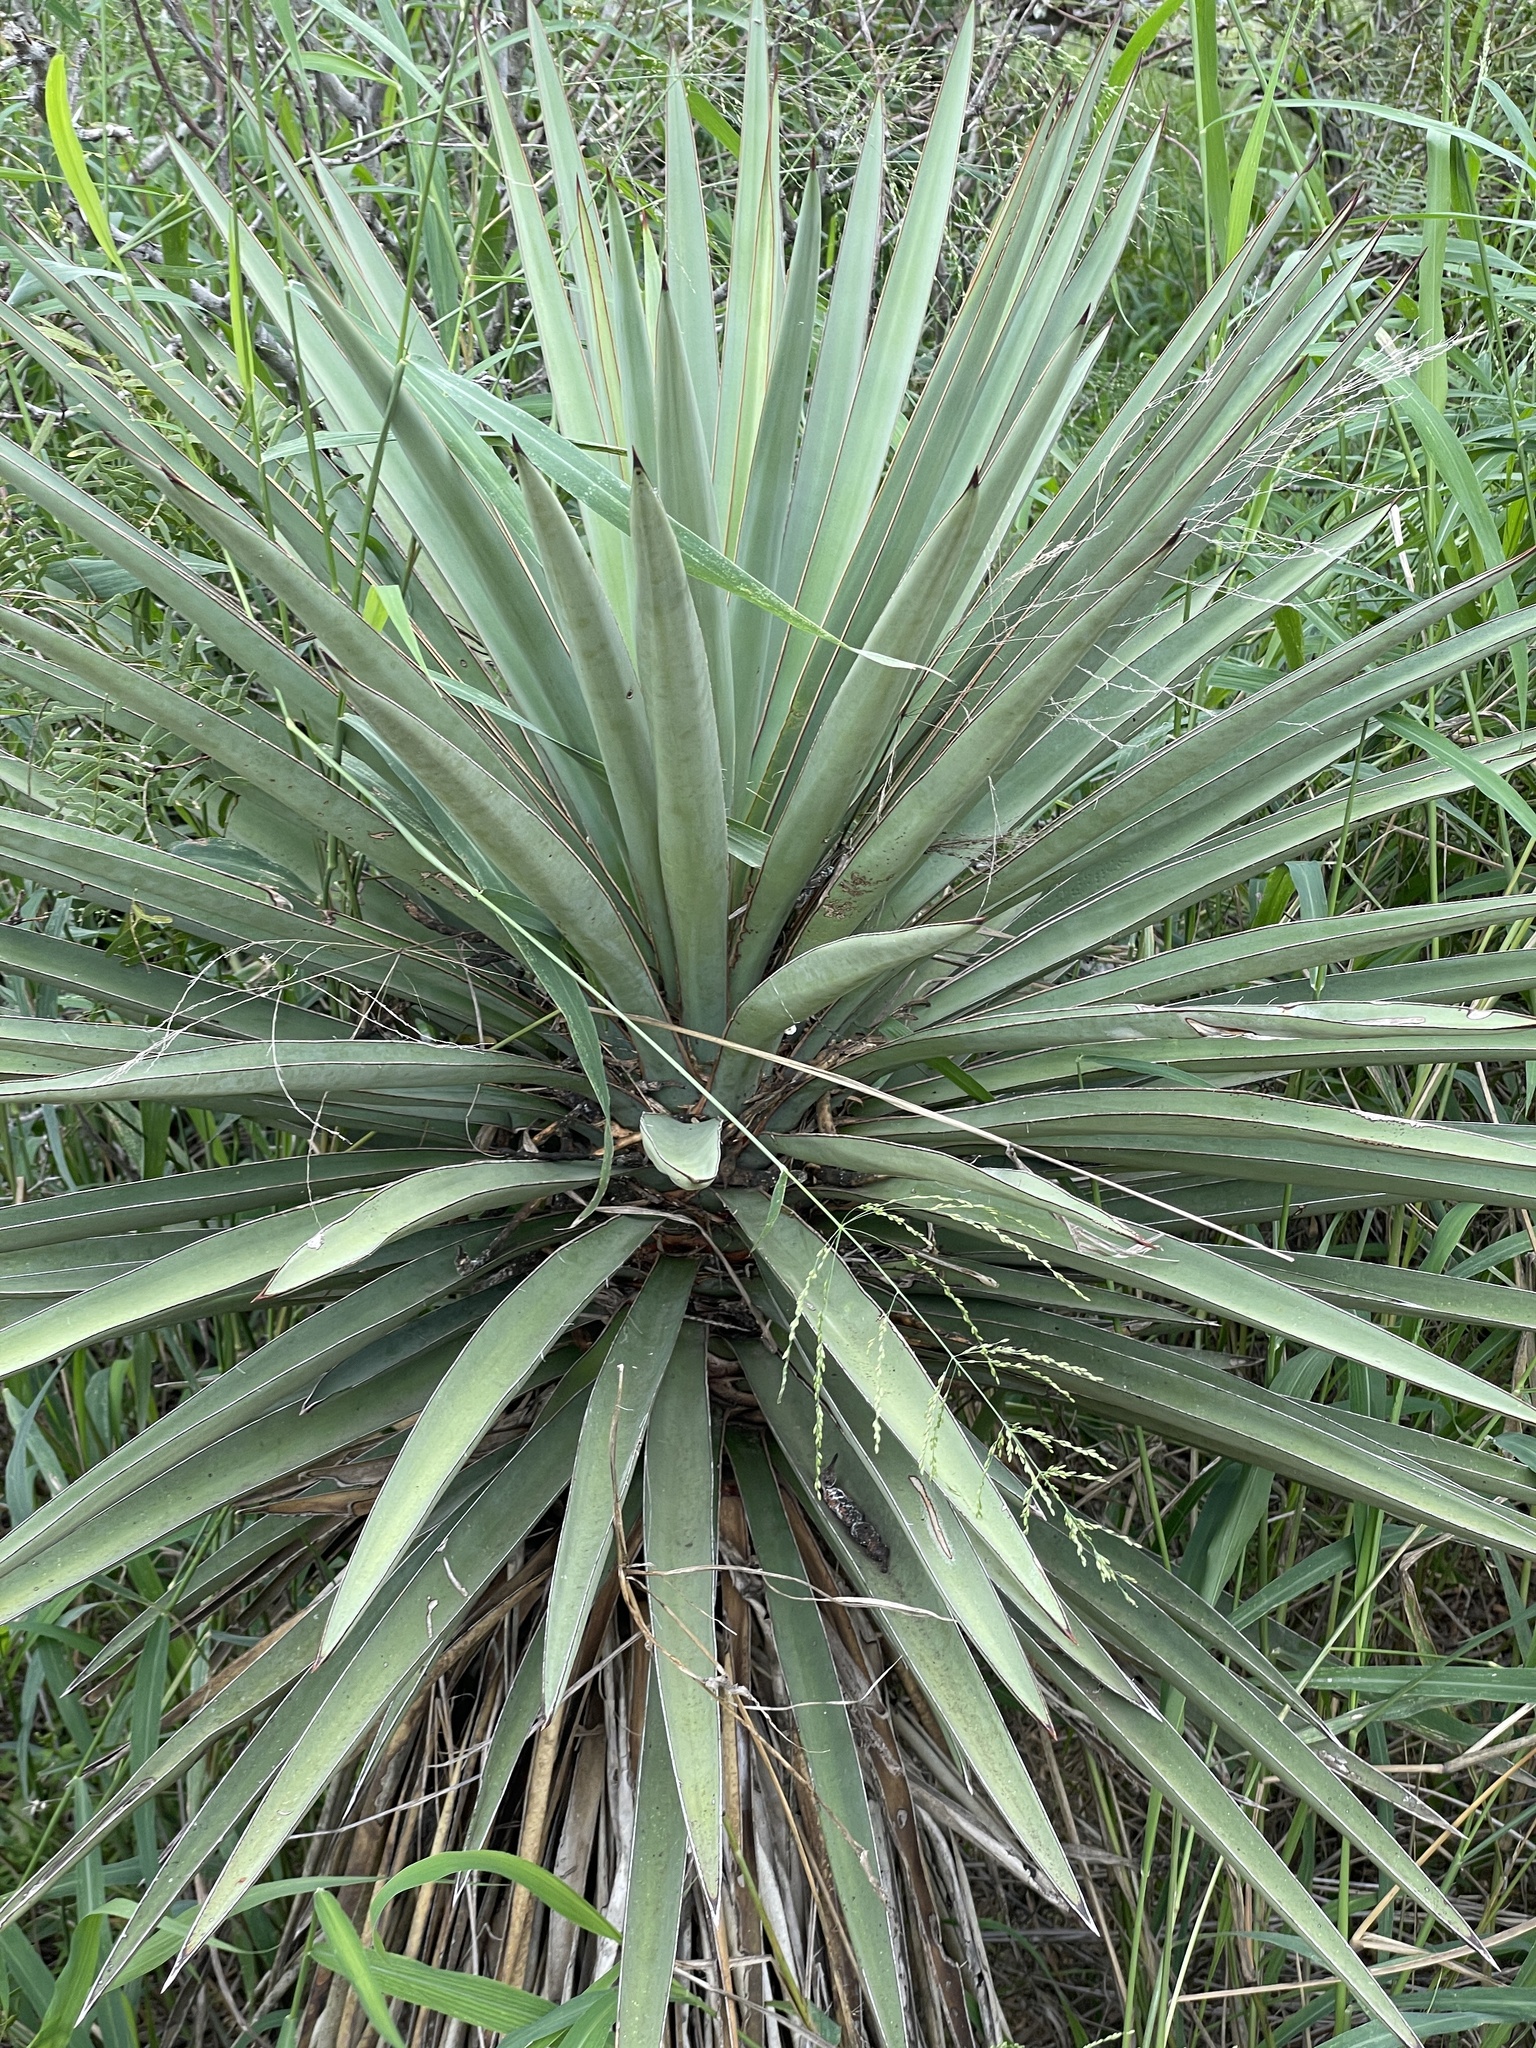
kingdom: Plantae
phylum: Tracheophyta
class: Liliopsida
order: Asparagales
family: Asparagaceae
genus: Yucca
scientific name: Yucca treculiana
